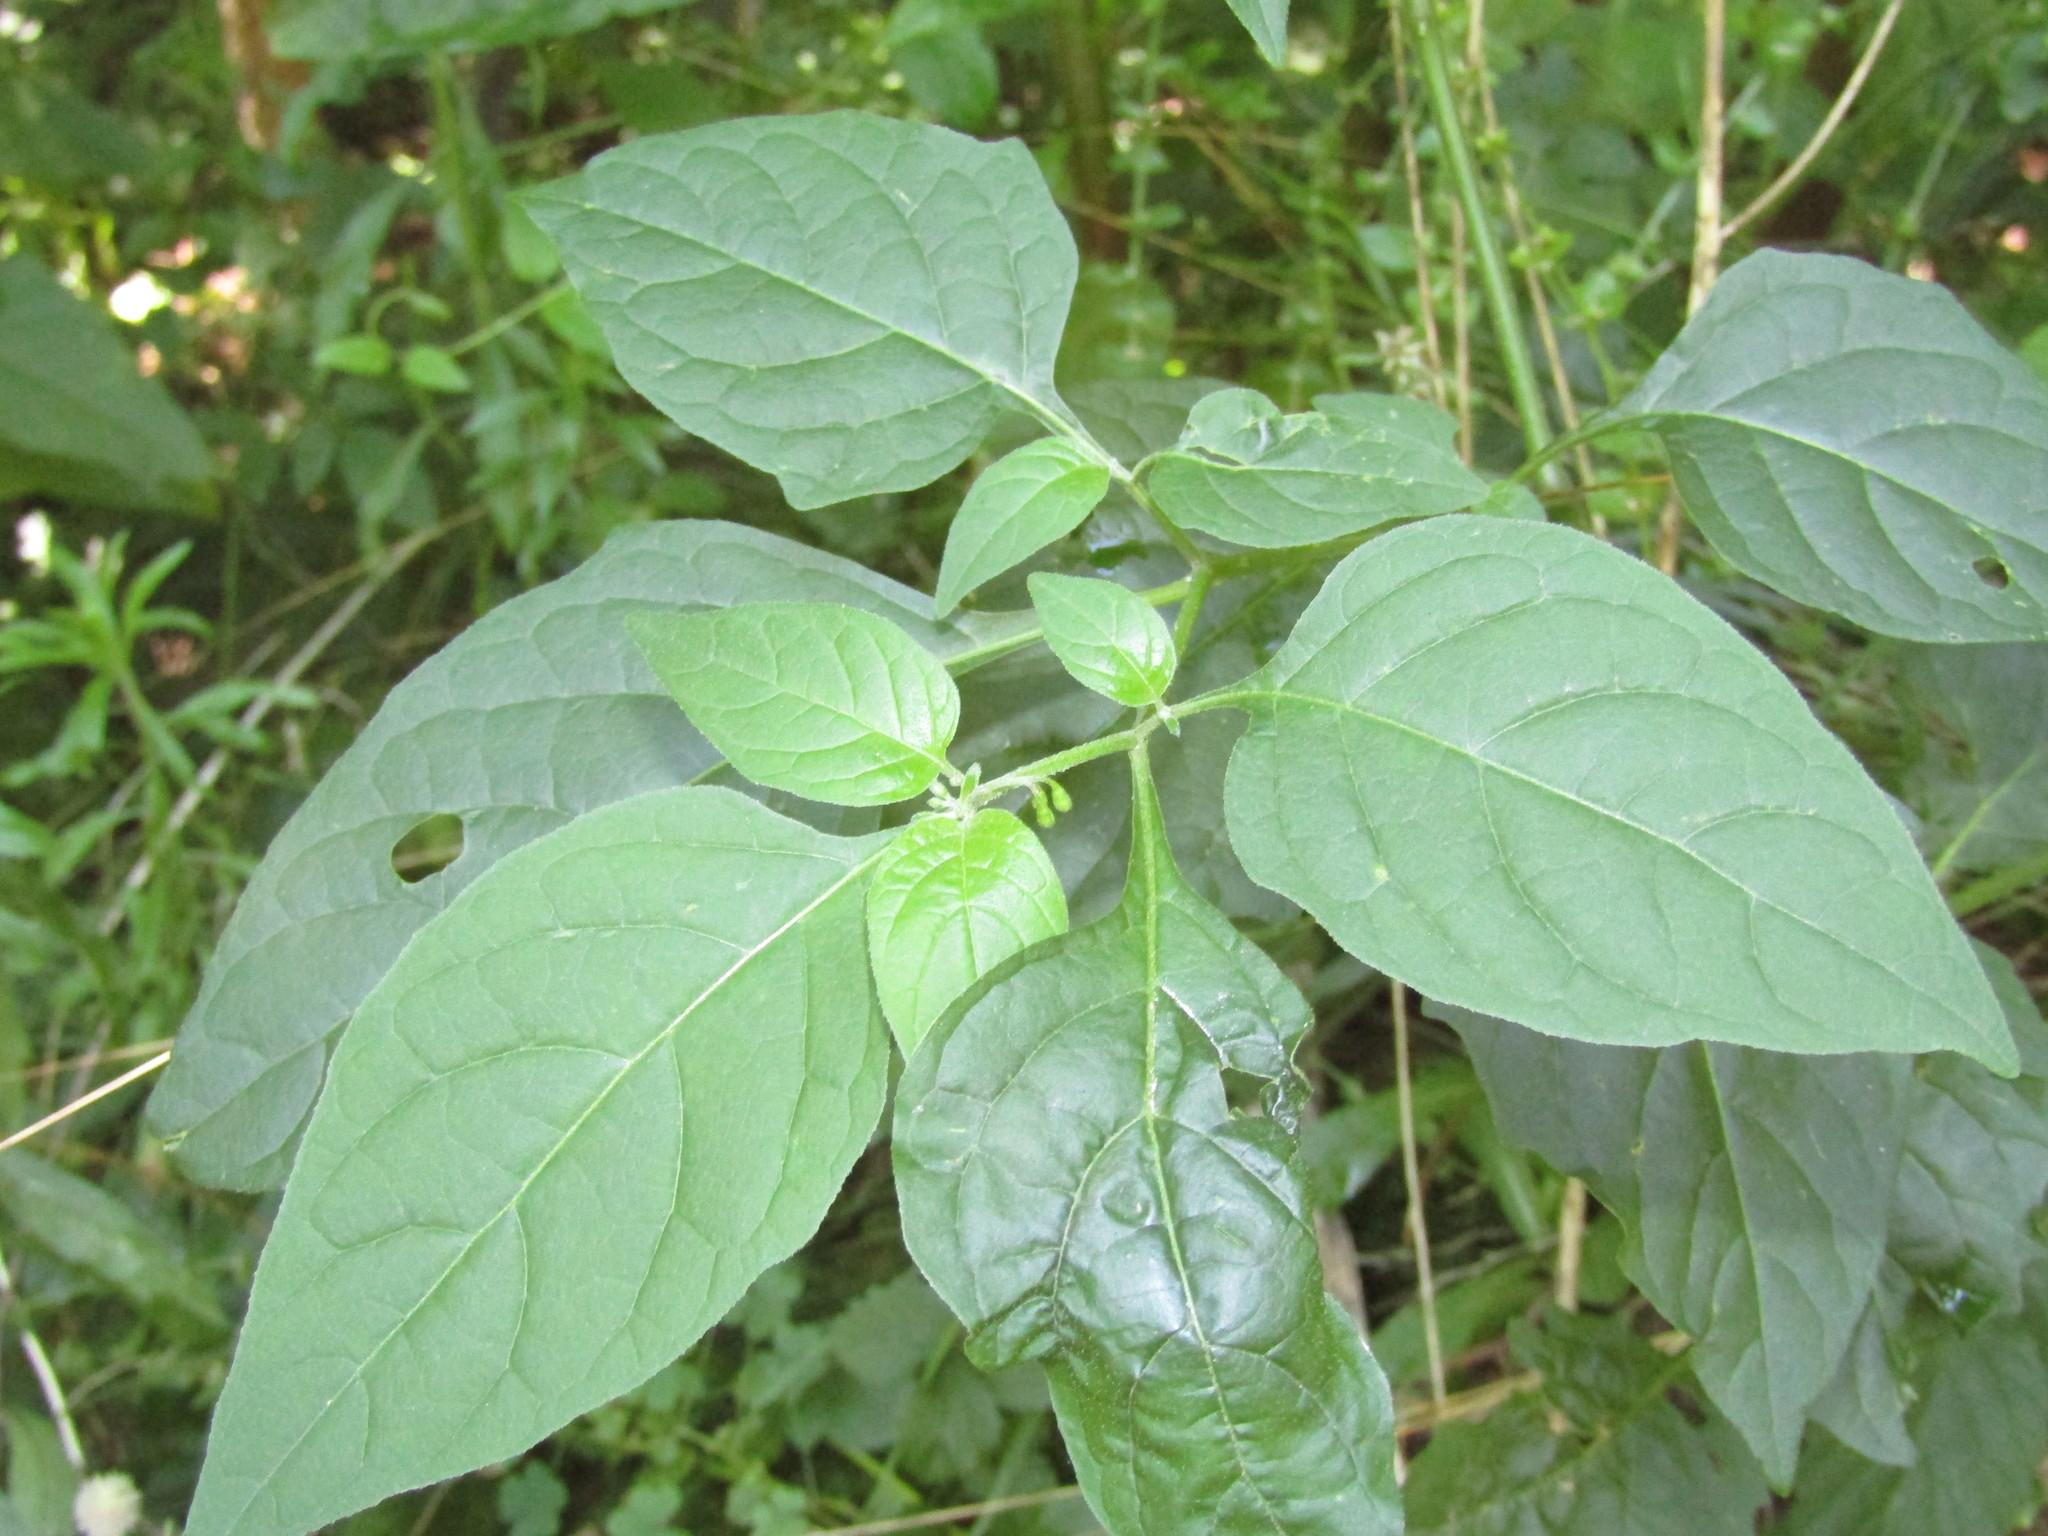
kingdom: Plantae
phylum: Tracheophyta
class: Magnoliopsida
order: Solanales
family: Solanaceae
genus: Solanum
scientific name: Solanum emulans
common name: Eastern black nightshade
